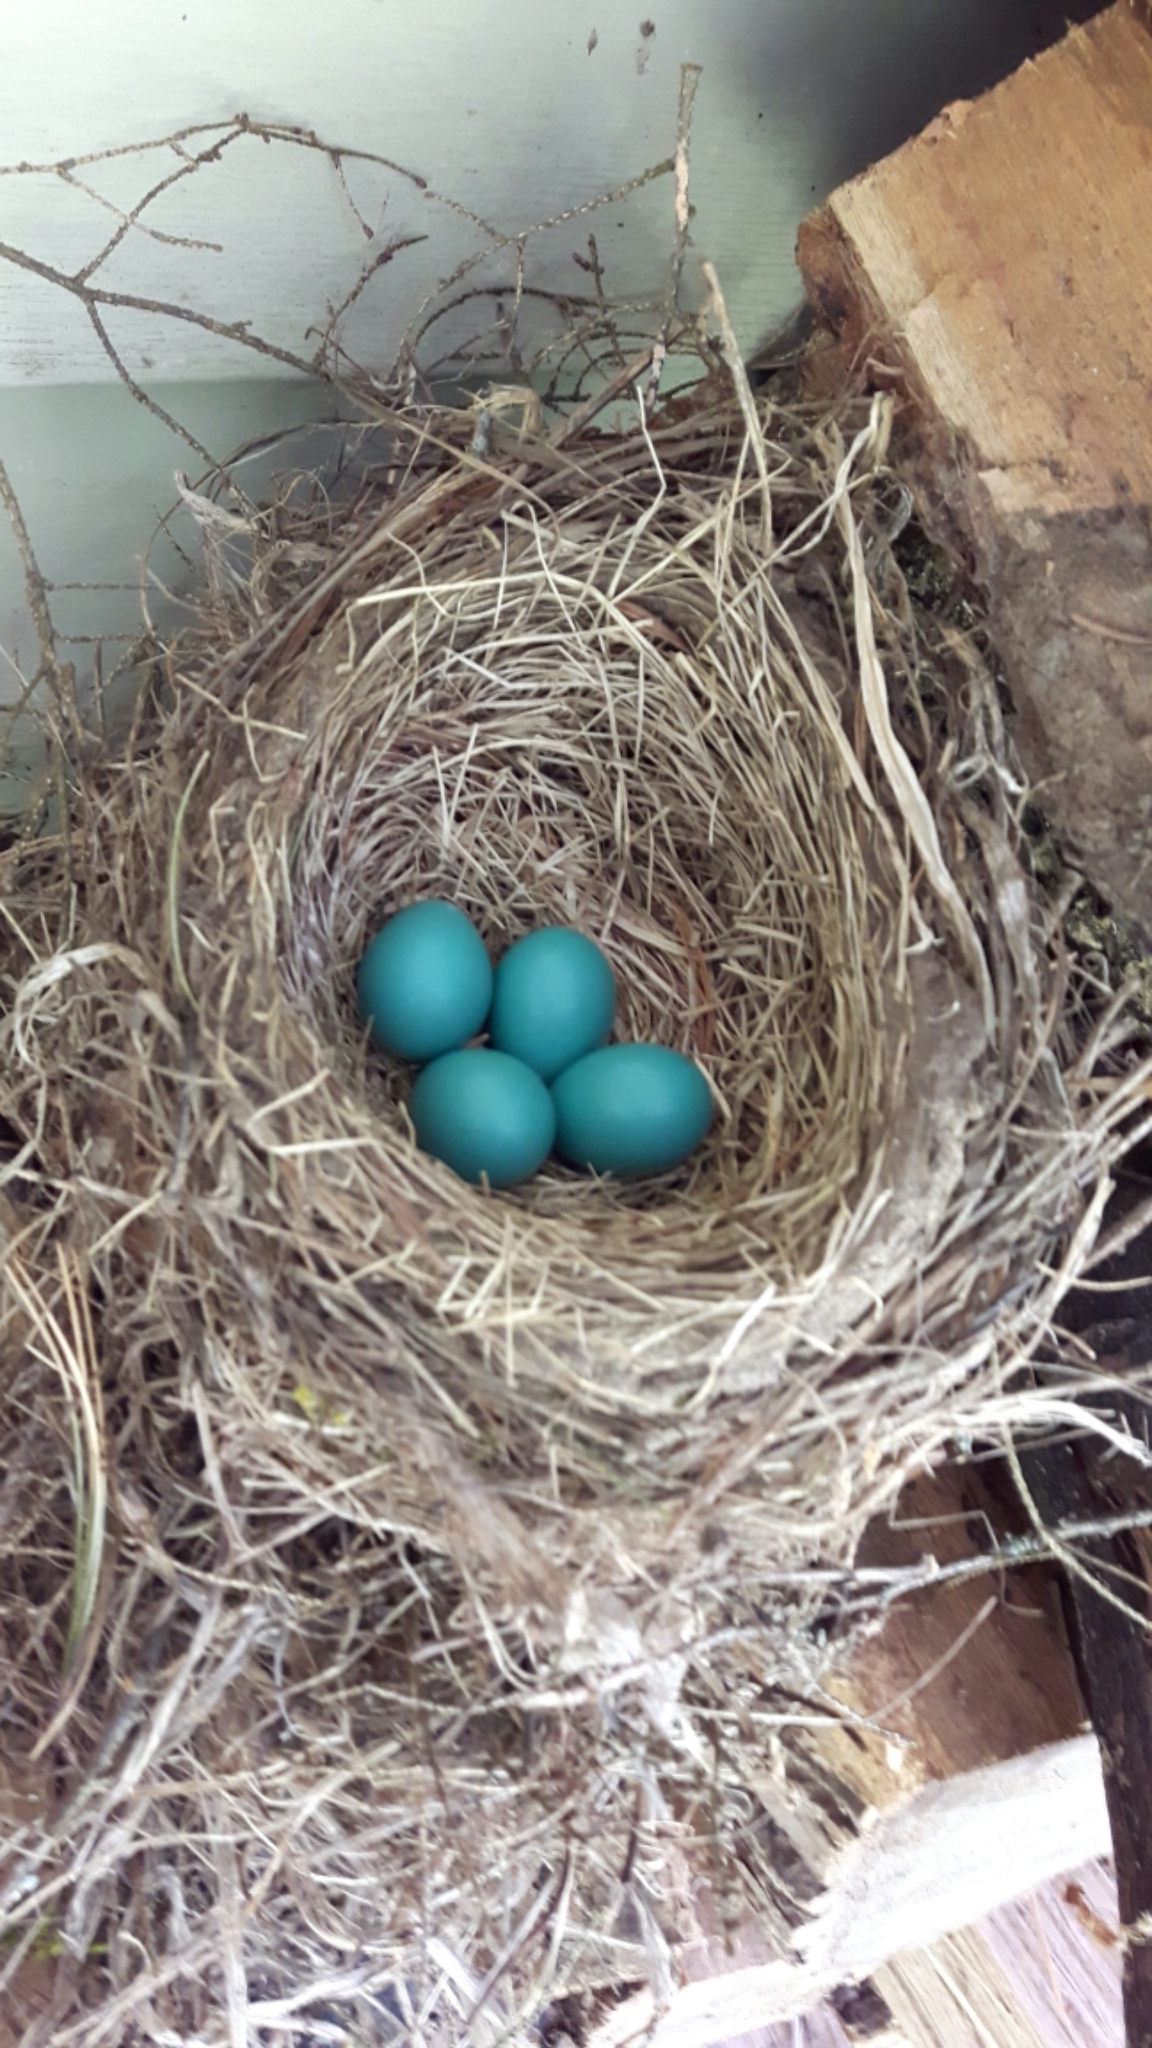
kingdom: Animalia
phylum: Chordata
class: Aves
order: Passeriformes
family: Turdidae
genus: Turdus
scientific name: Turdus migratorius
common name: American robin
